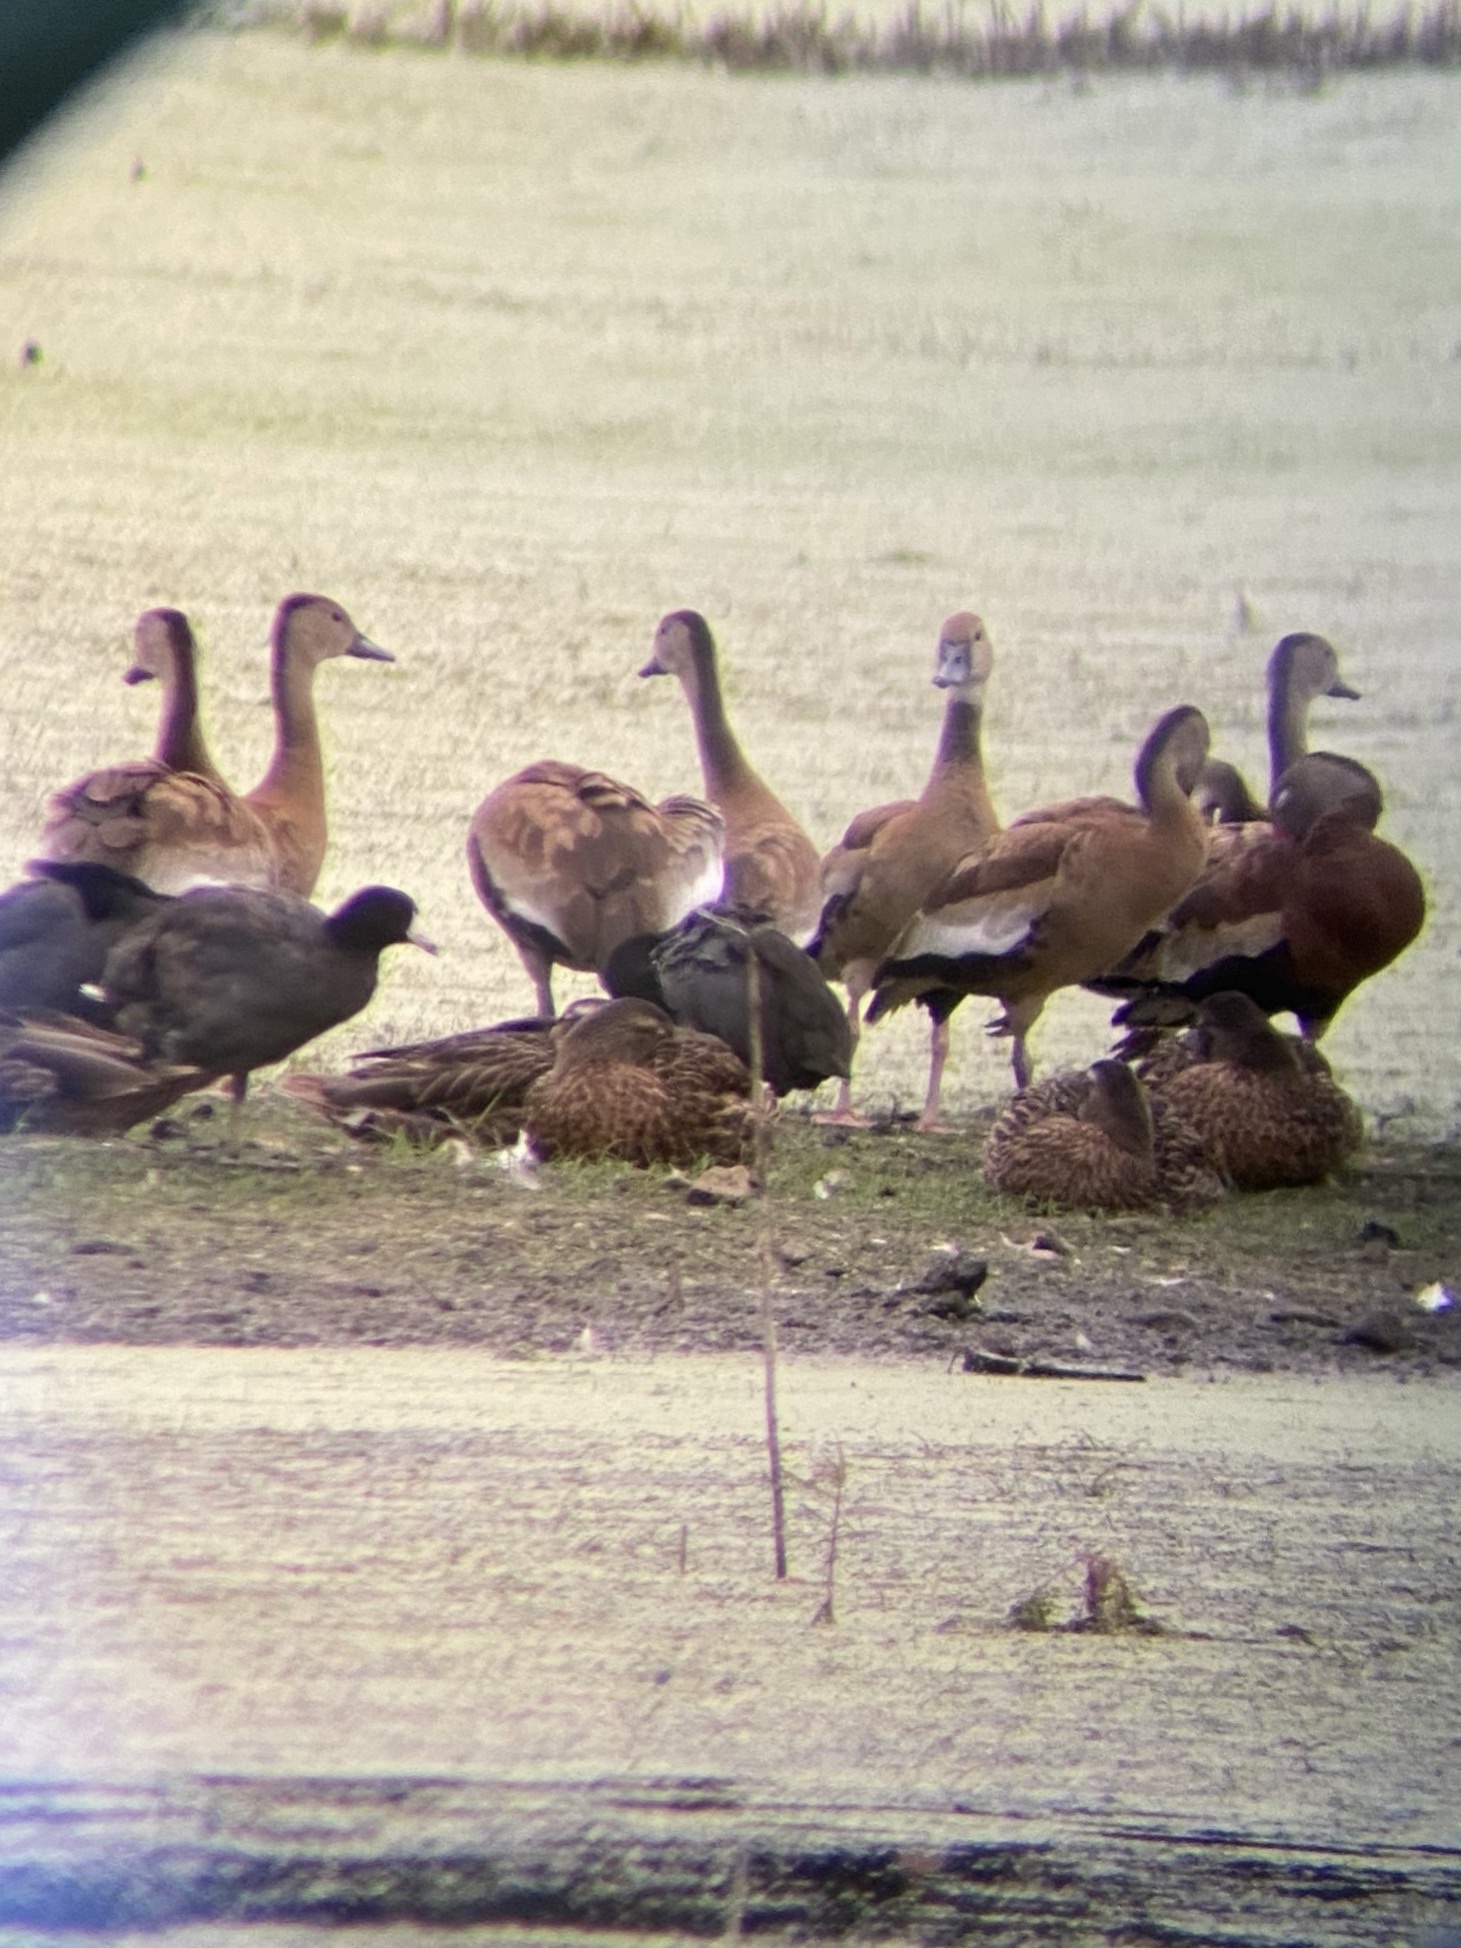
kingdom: Animalia
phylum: Chordata
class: Aves
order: Anseriformes
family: Anatidae
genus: Dendrocygna
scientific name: Dendrocygna autumnalis
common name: Black-bellied whistling duck
